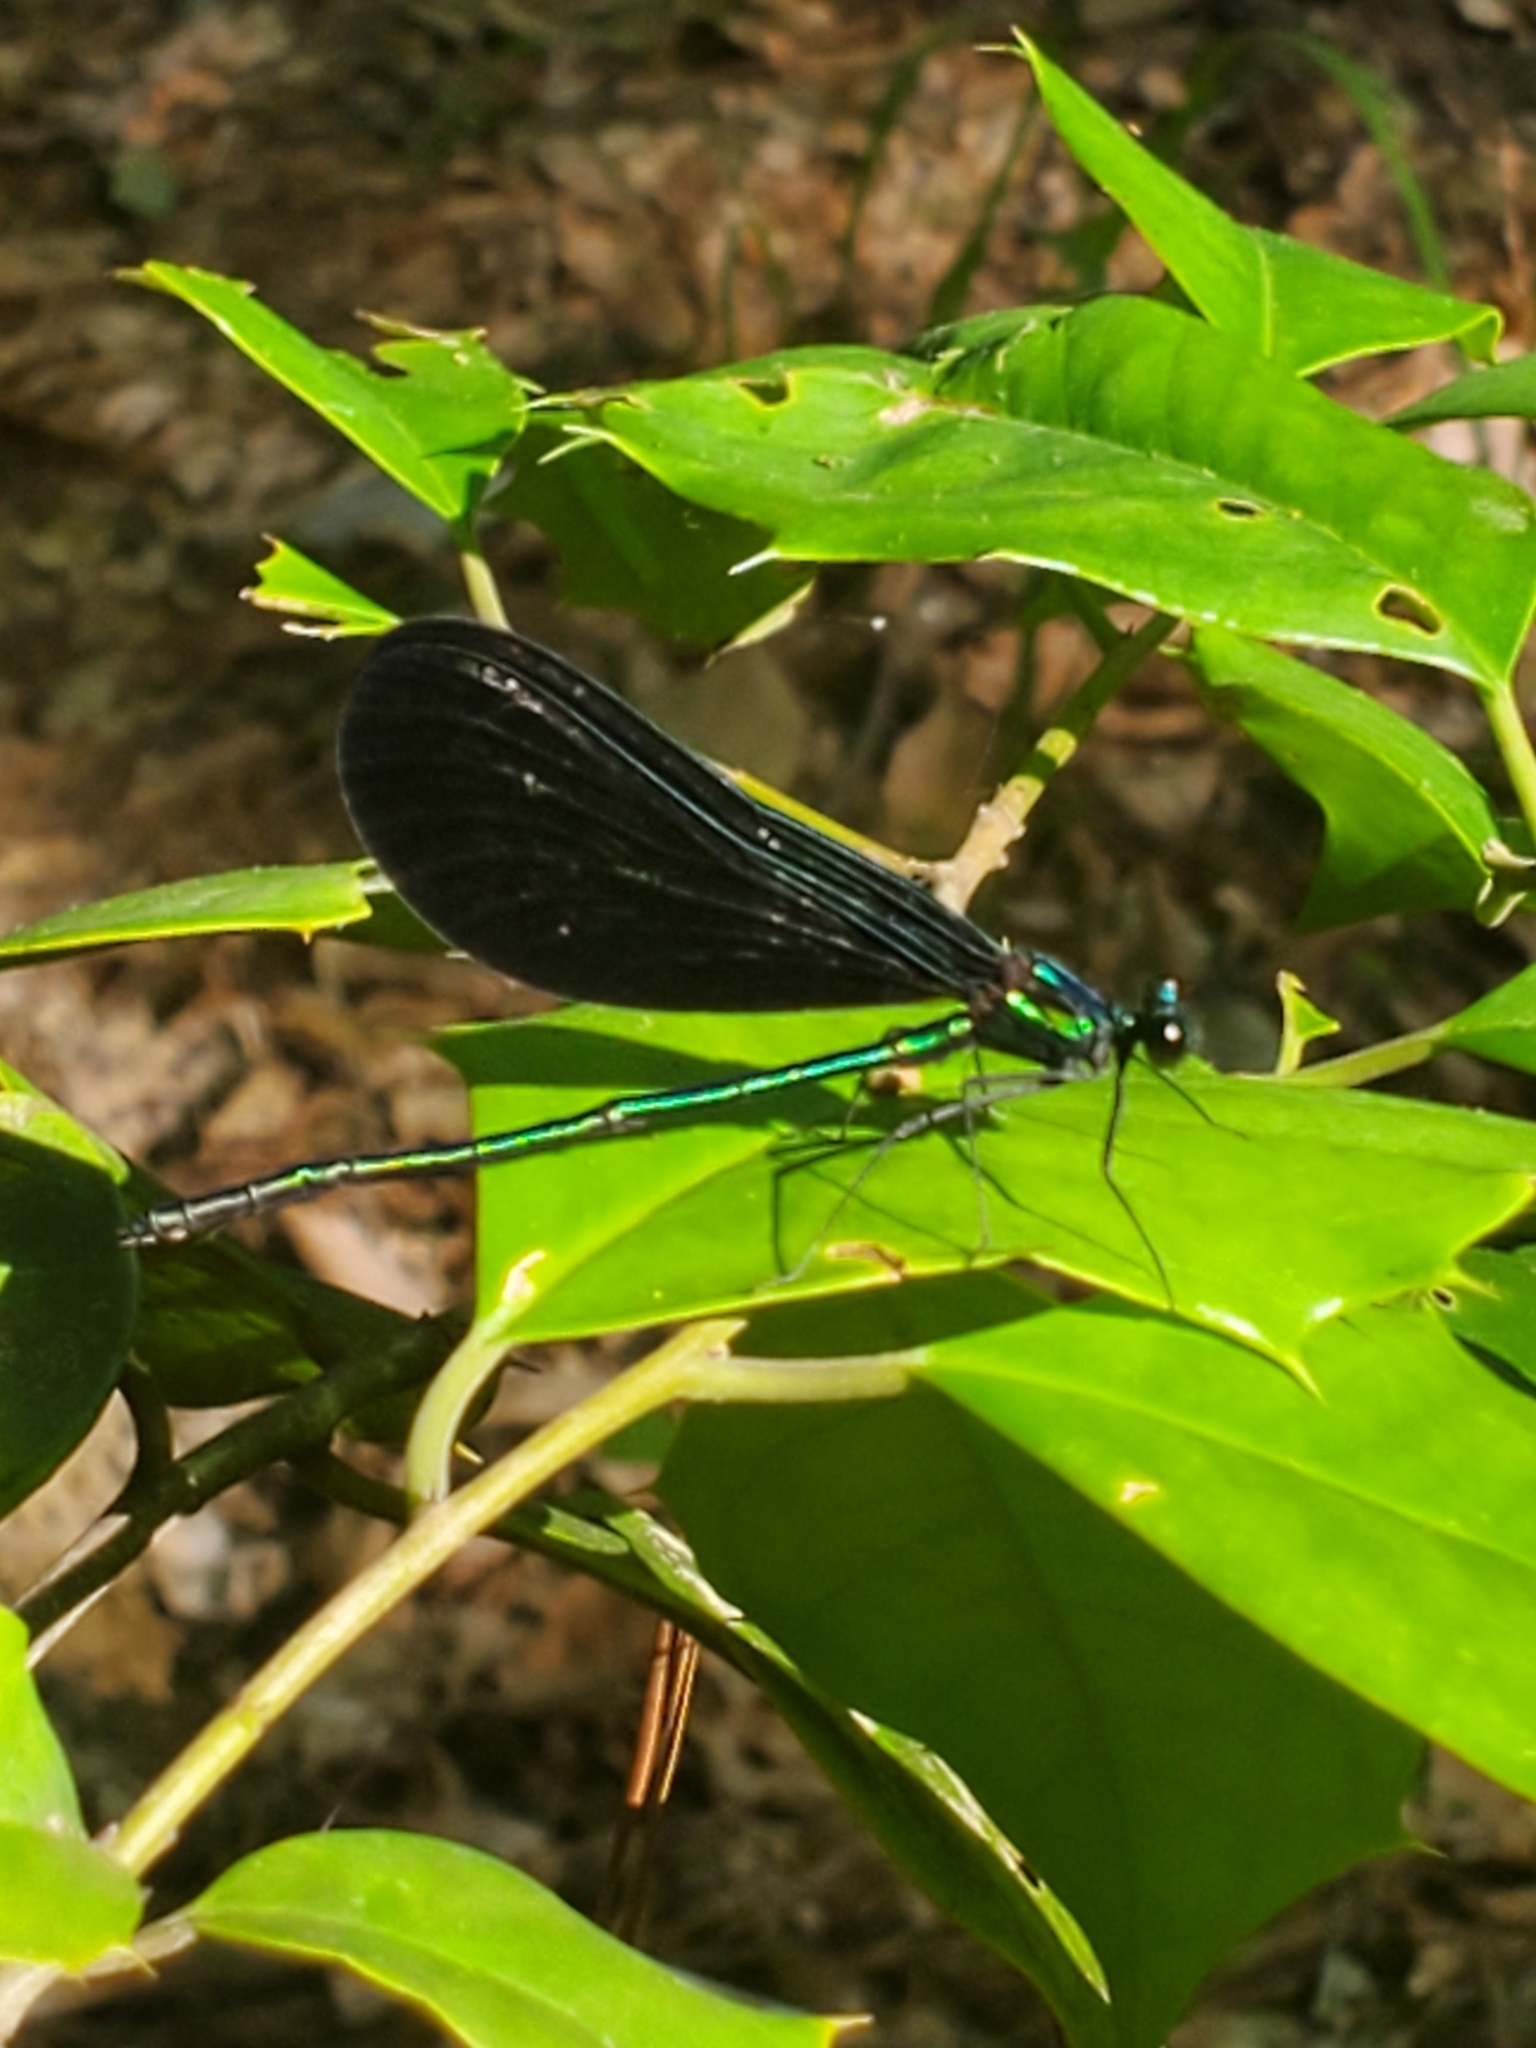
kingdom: Animalia
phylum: Arthropoda
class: Insecta
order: Odonata
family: Calopterygidae
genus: Calopteryx
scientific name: Calopteryx maculata
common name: Ebony jewelwing
